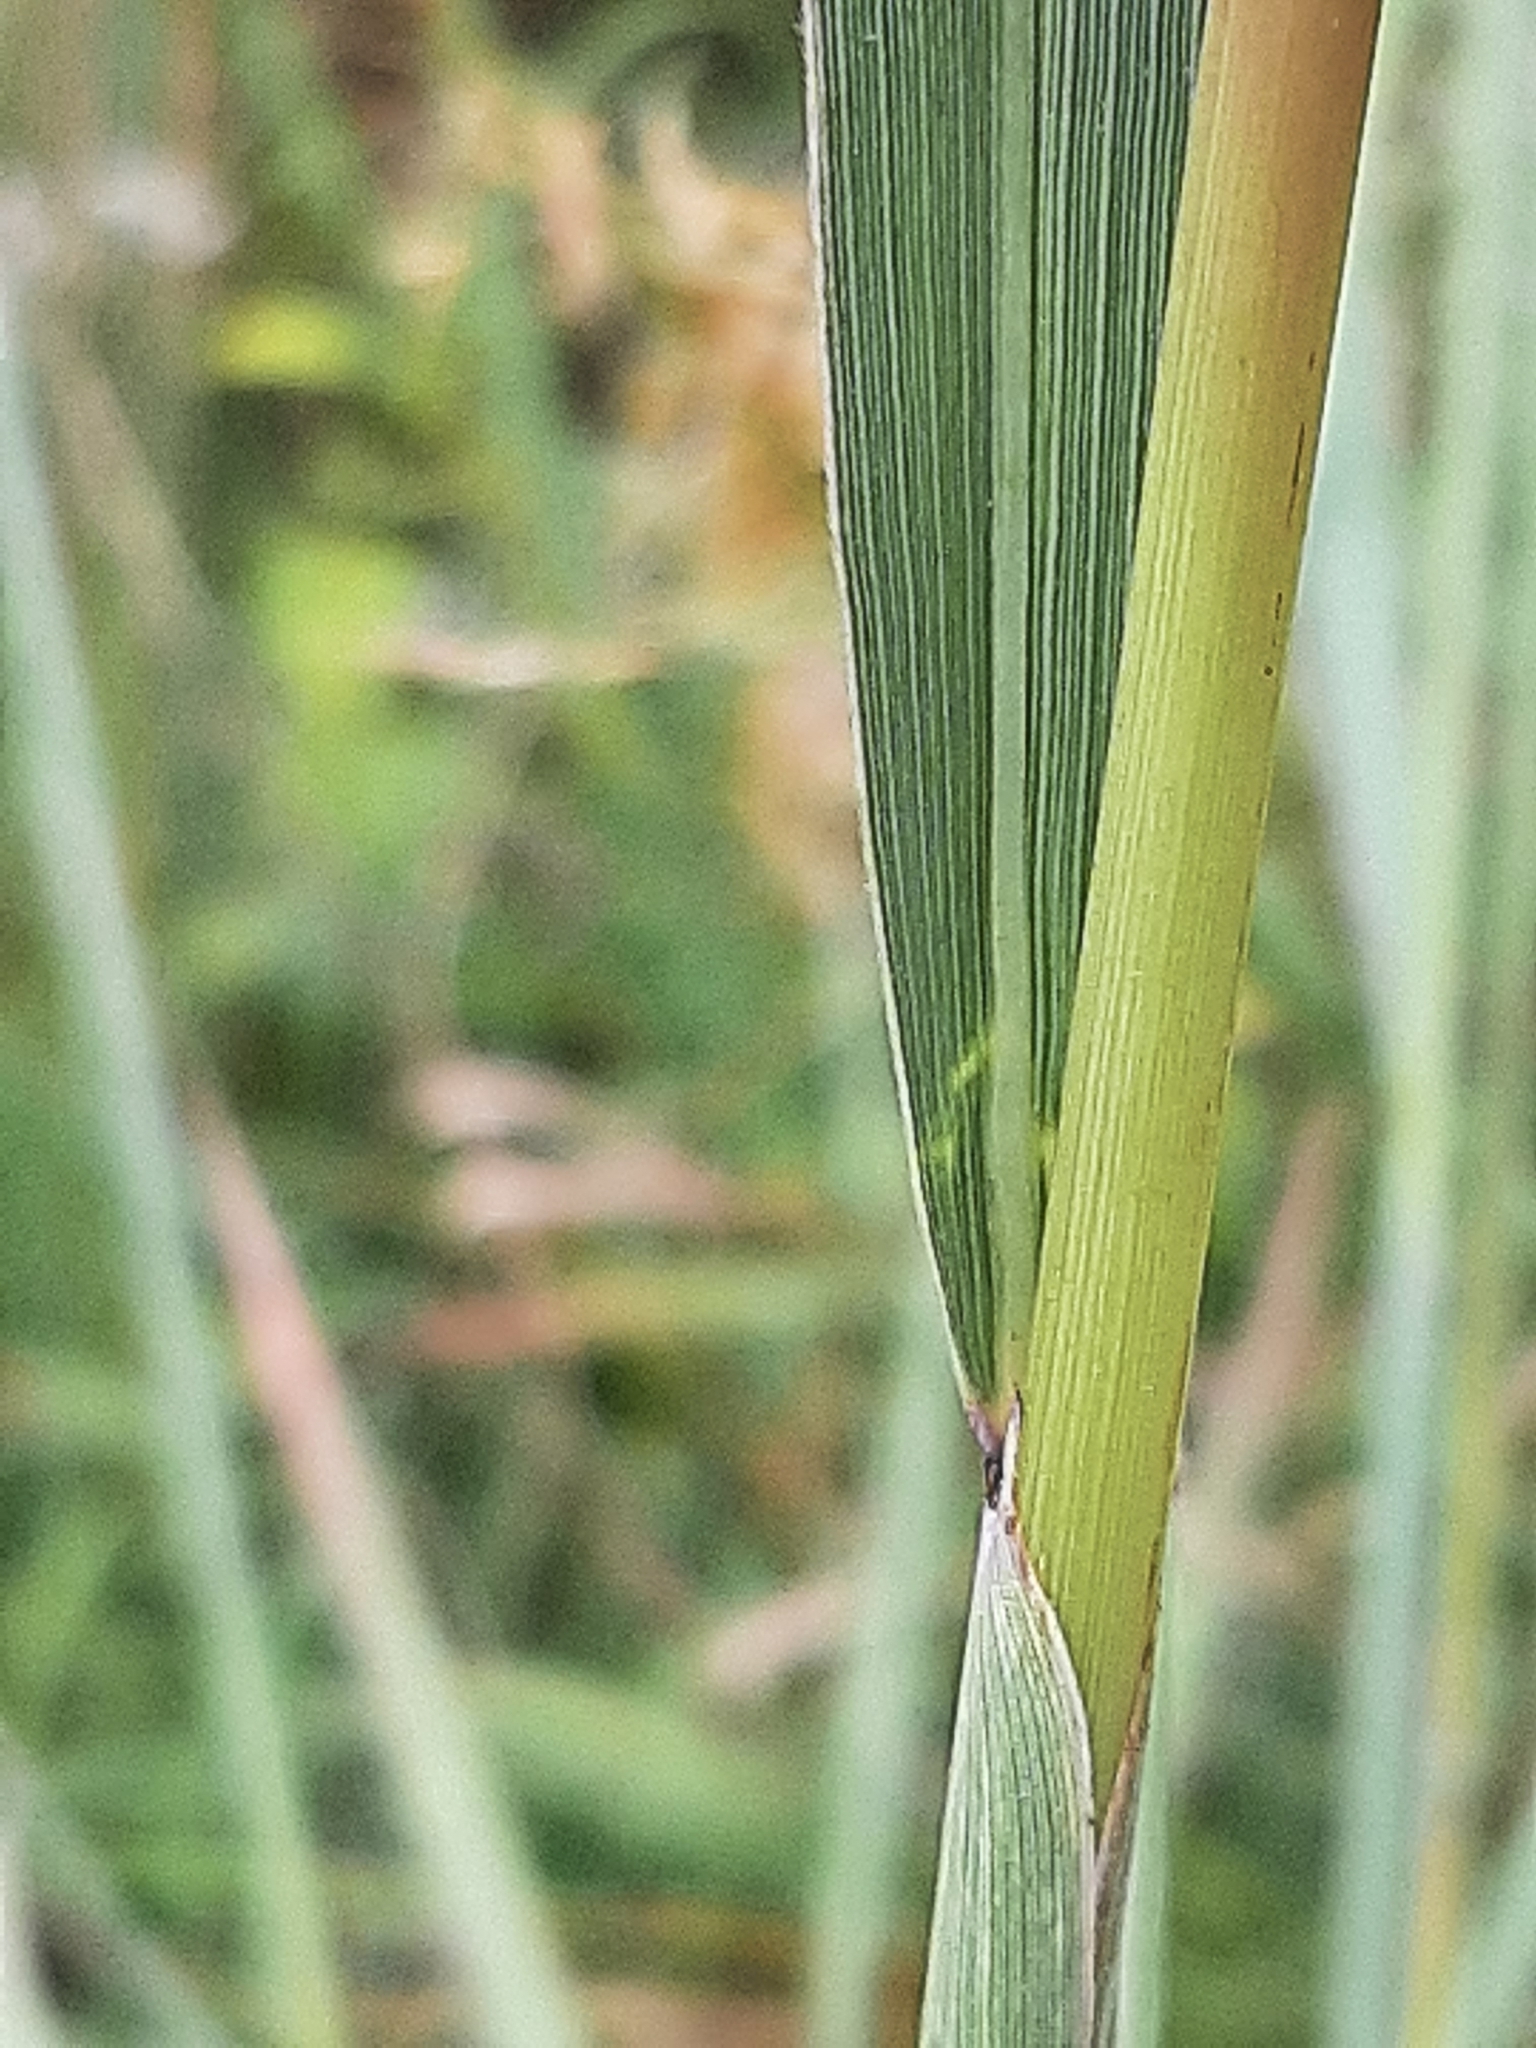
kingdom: Plantae
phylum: Tracheophyta
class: Liliopsida
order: Poales
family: Poaceae
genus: Sorghastrum
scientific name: Sorghastrum nutans
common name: Indian grass
